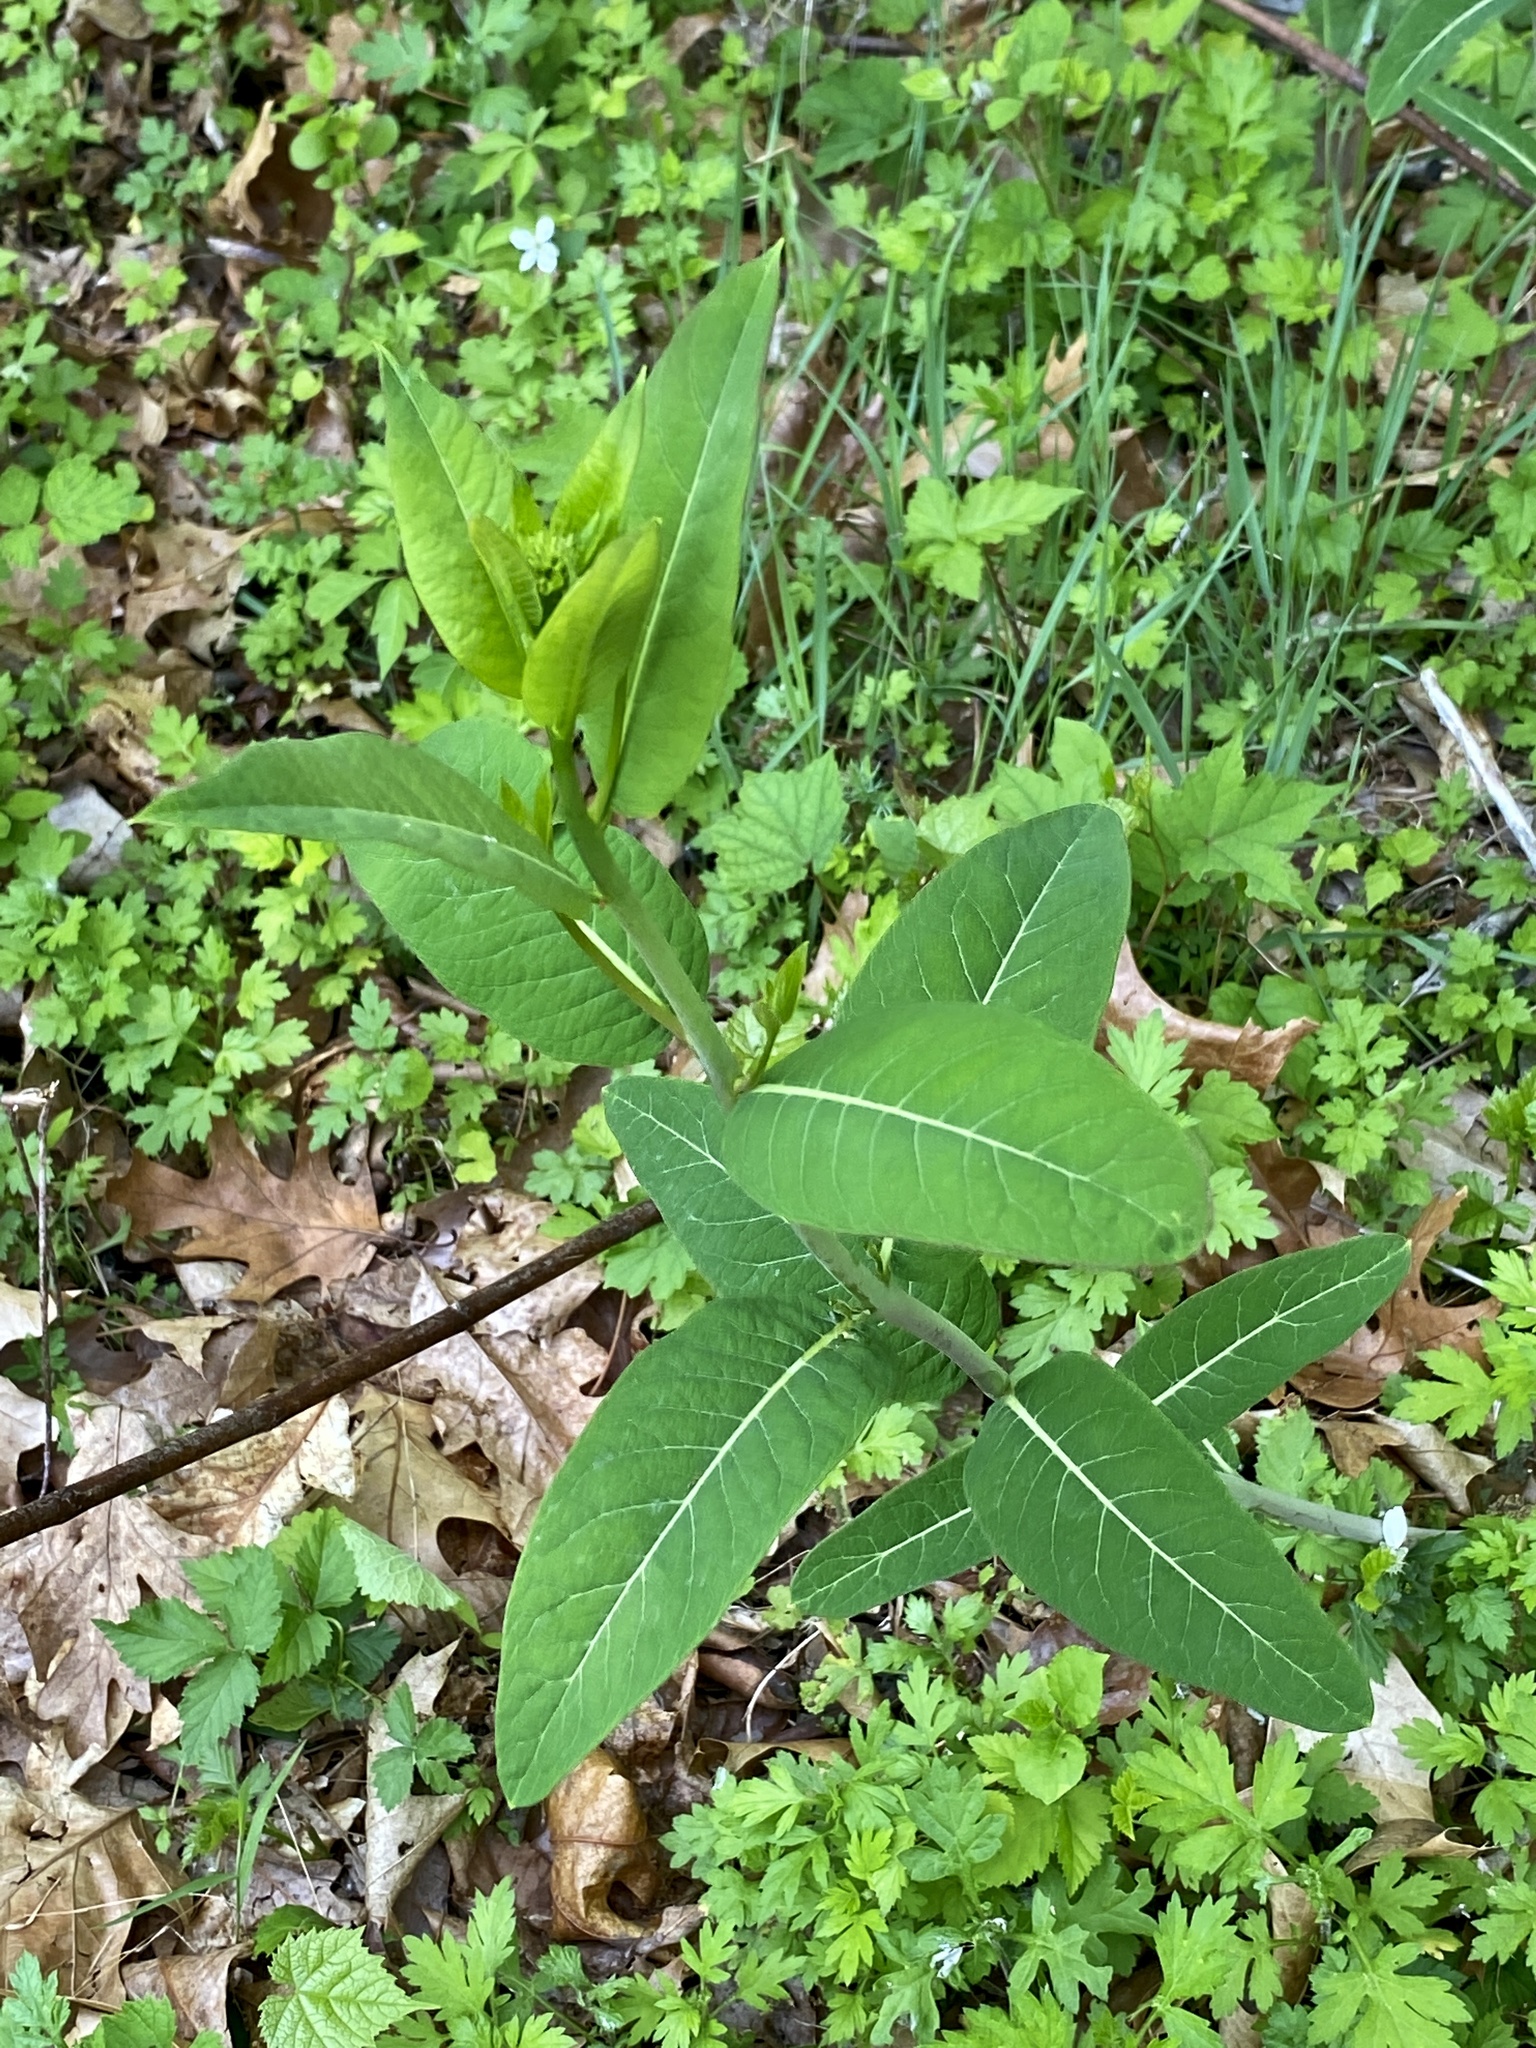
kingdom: Plantae
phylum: Tracheophyta
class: Magnoliopsida
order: Gentianales
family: Apocynaceae
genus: Apocynum
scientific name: Apocynum cannabinum
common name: Hemp dogbane
